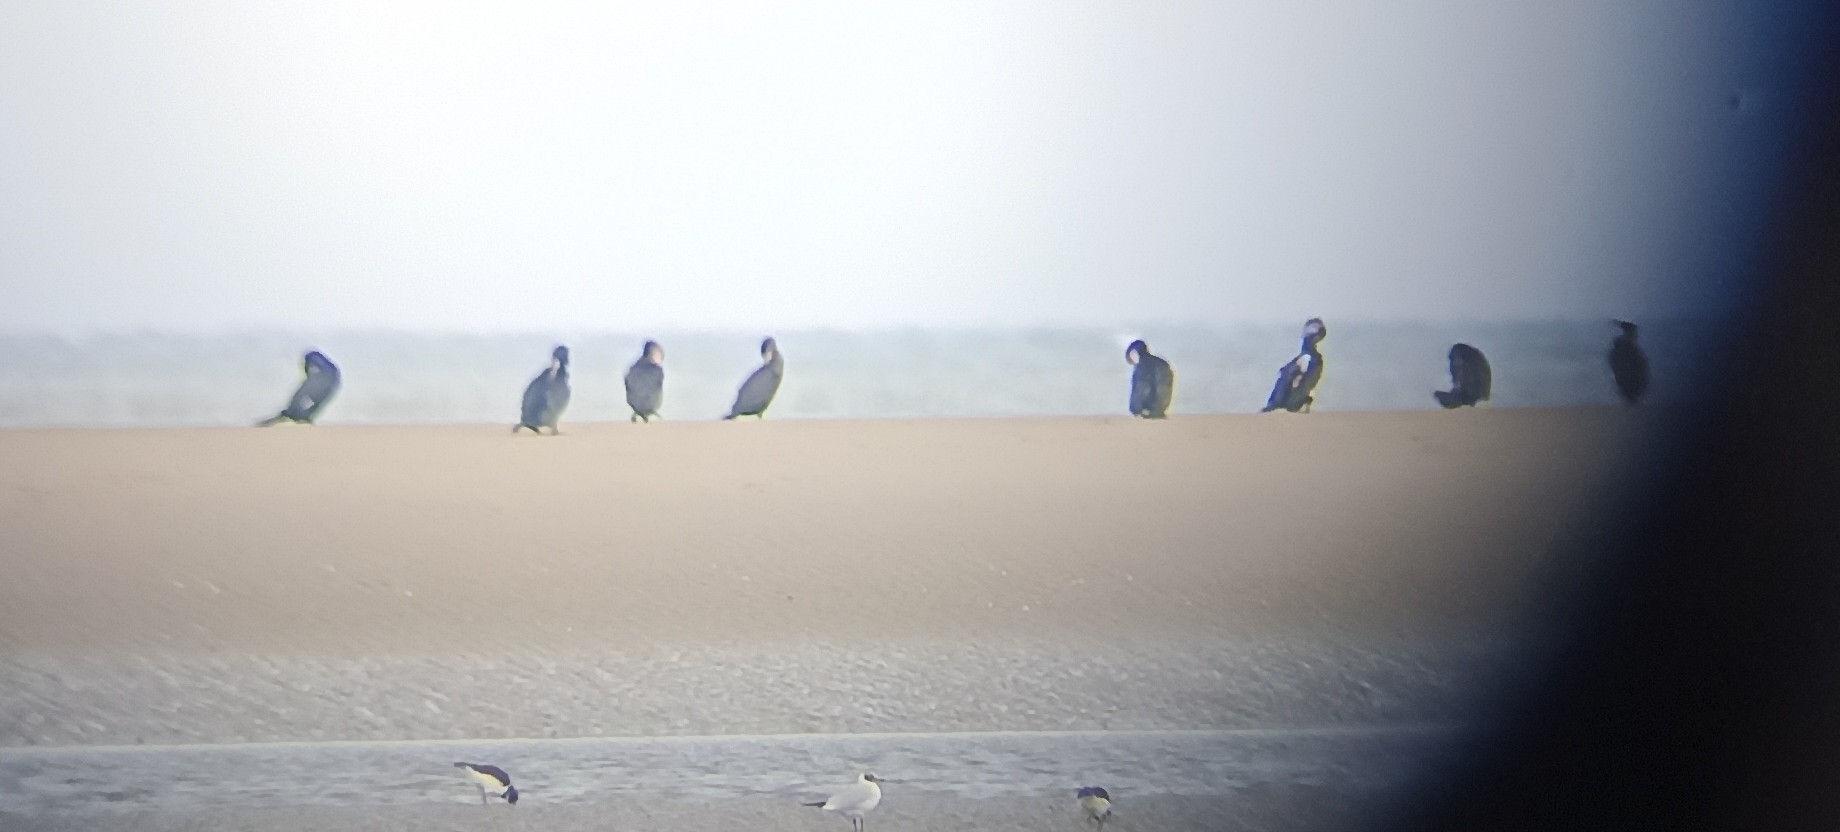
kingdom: Animalia
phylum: Chordata
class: Aves
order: Suliformes
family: Phalacrocoracidae
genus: Phalacrocorax
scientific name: Phalacrocorax carbo
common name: Great cormorant
